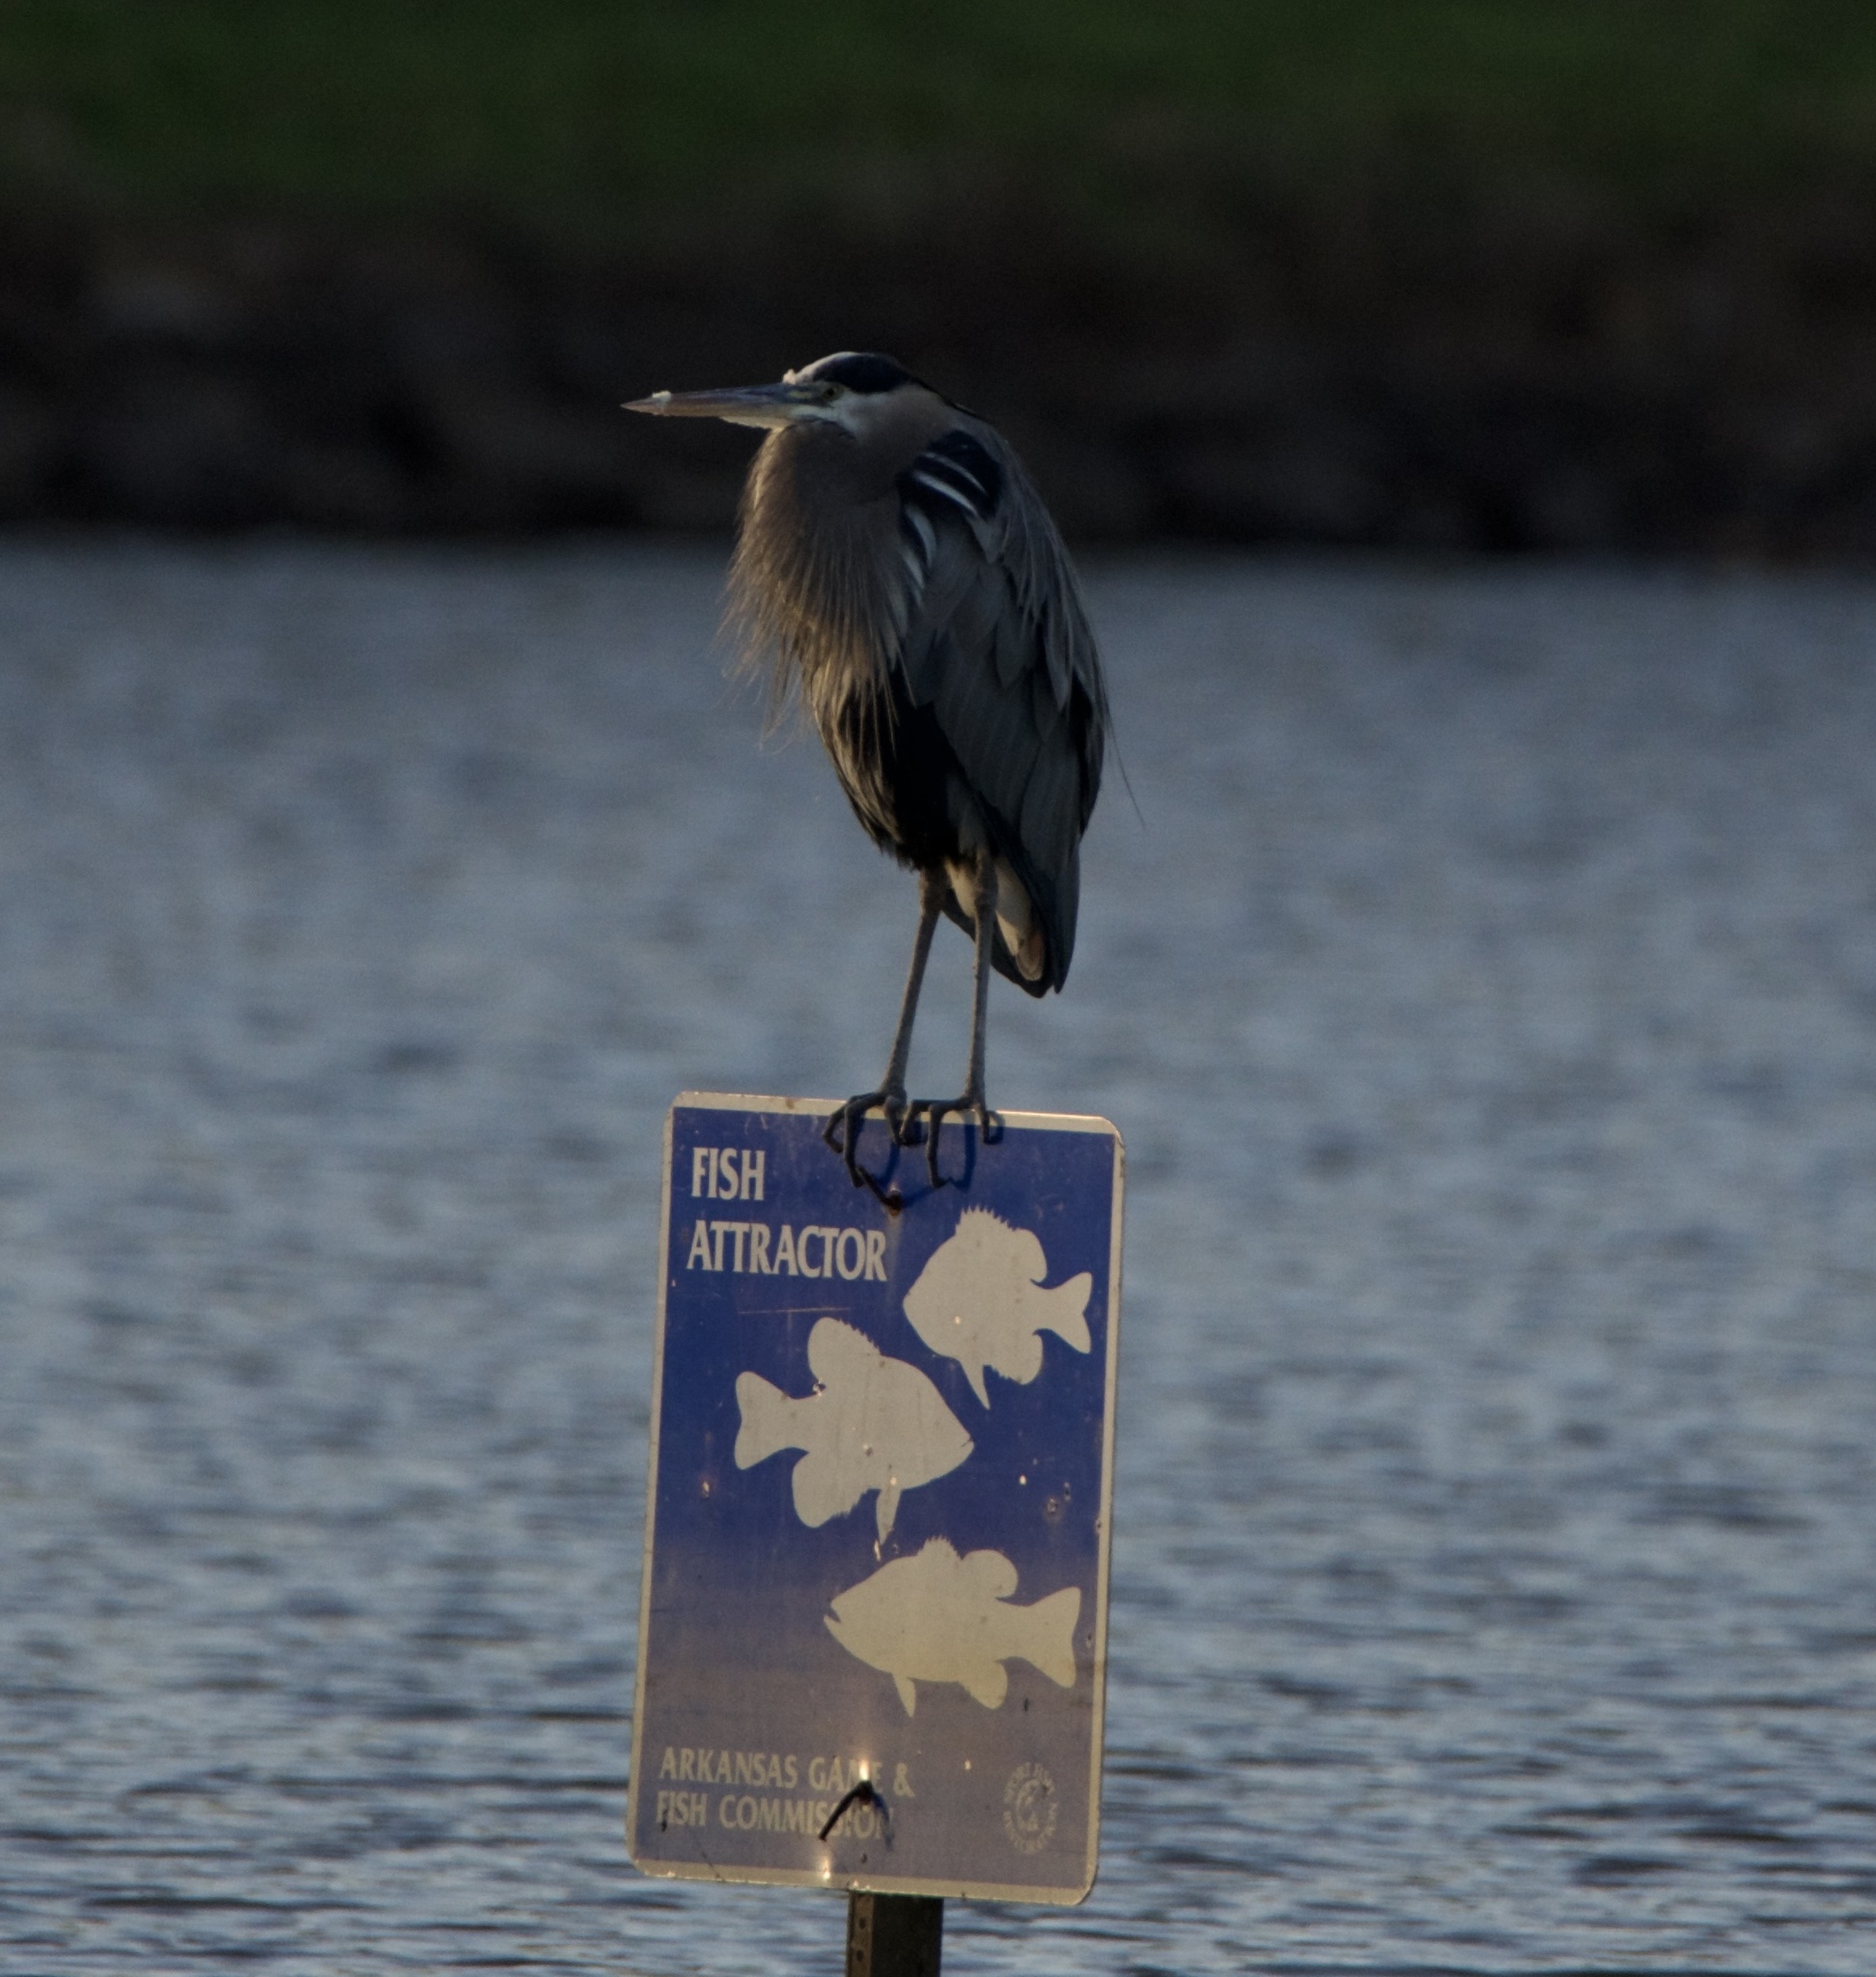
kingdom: Animalia
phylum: Chordata
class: Aves
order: Pelecaniformes
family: Ardeidae
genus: Ardea
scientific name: Ardea herodias
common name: Great blue heron
